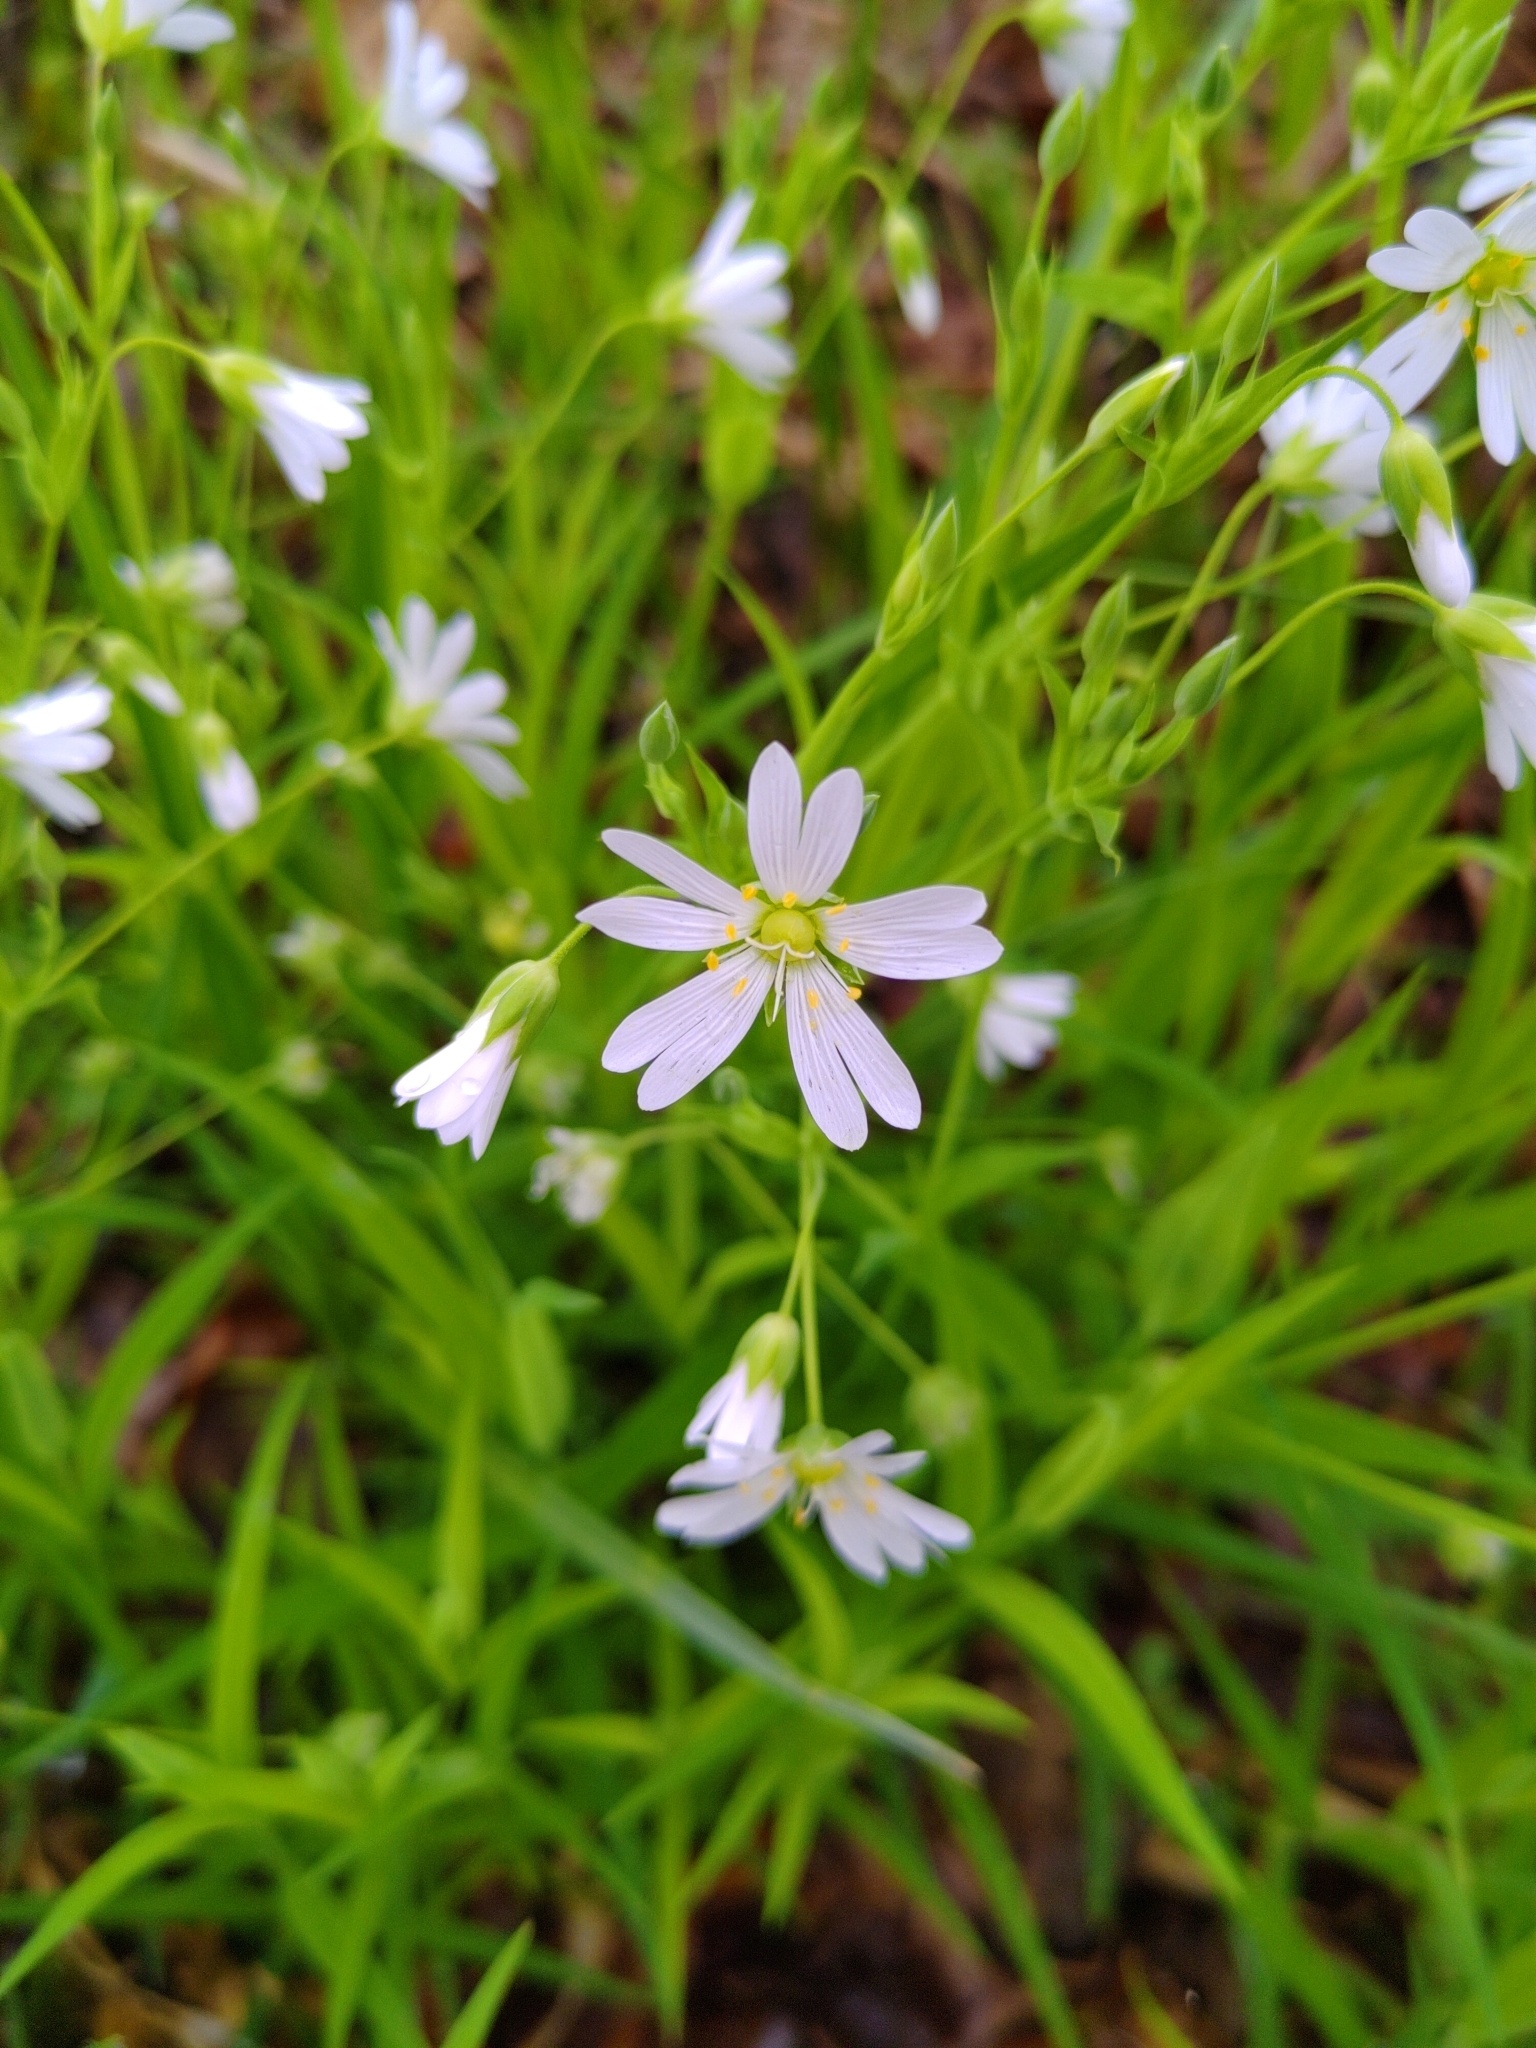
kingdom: Plantae
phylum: Tracheophyta
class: Magnoliopsida
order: Caryophyllales
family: Caryophyllaceae
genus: Rabelera
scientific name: Rabelera holostea
